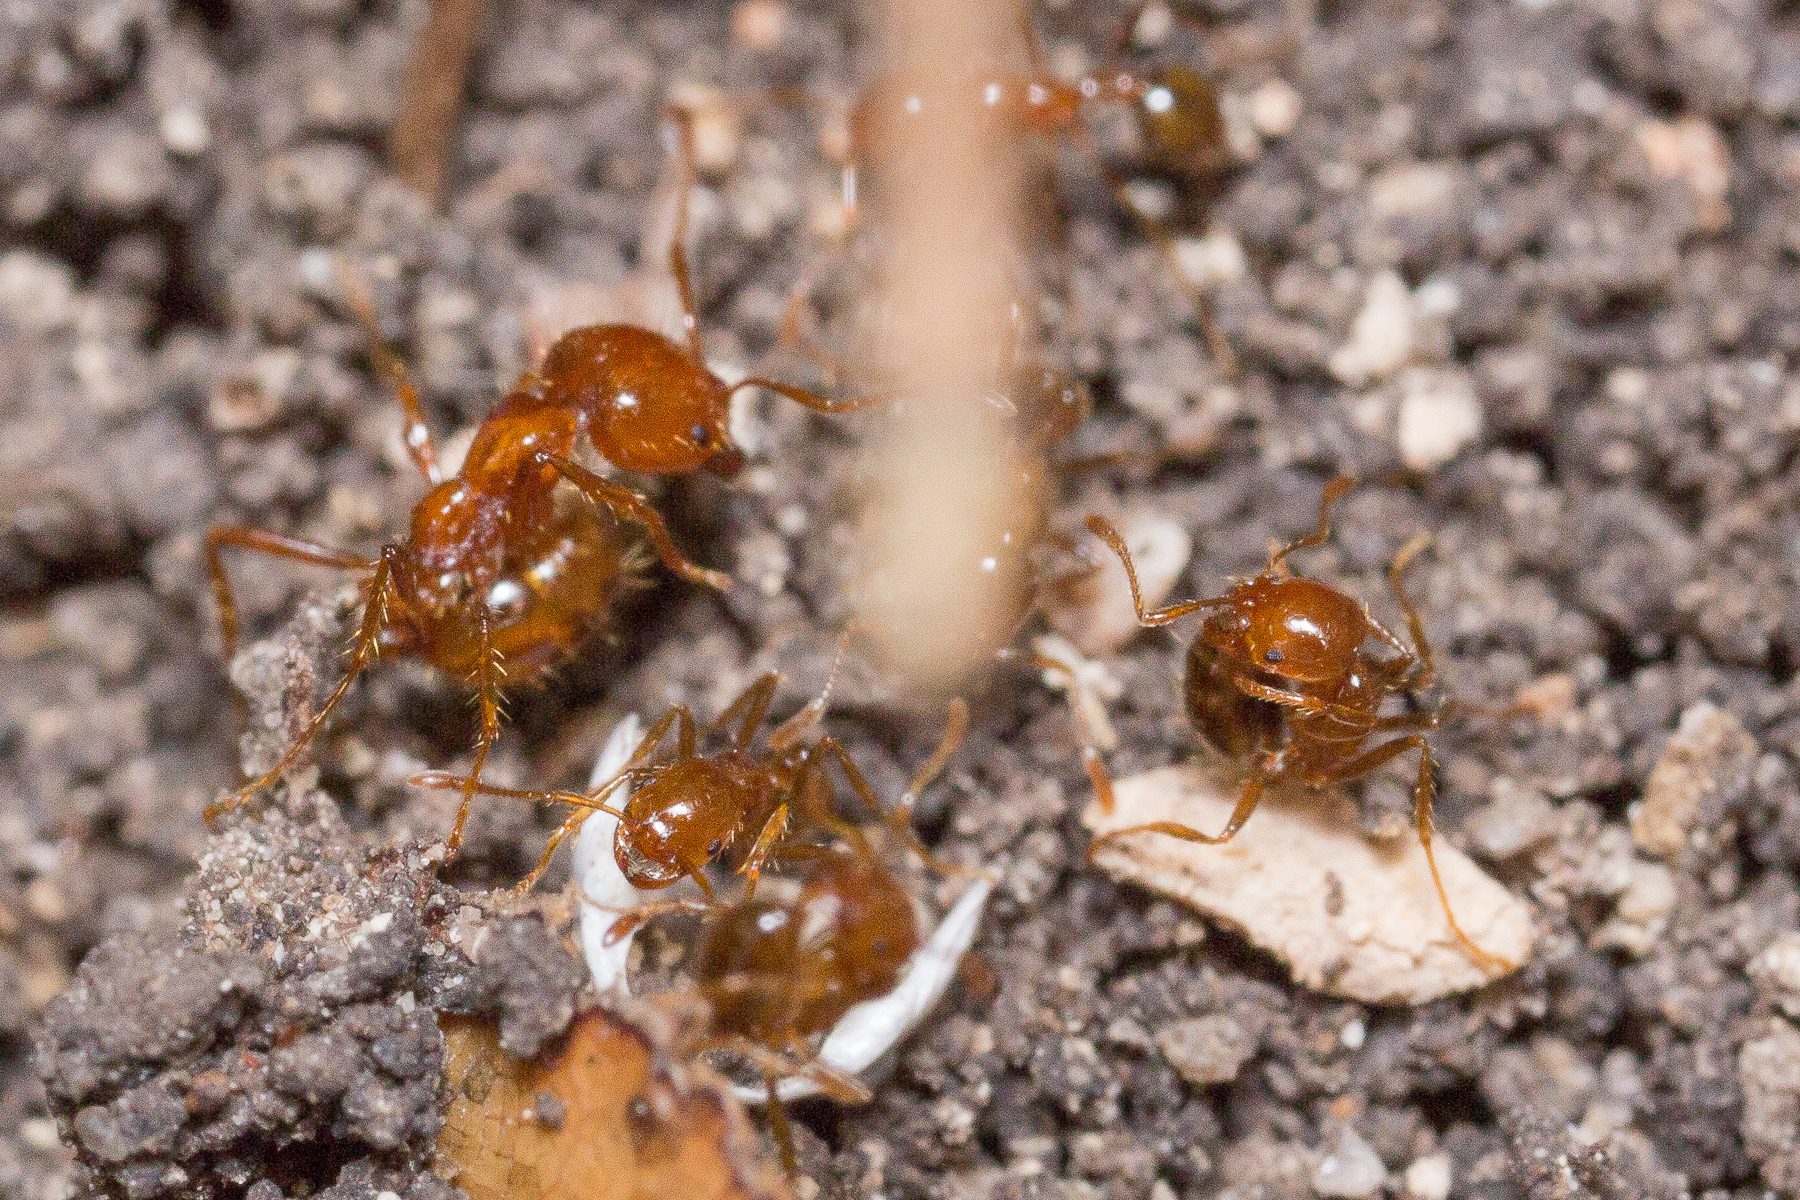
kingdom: Animalia
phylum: Arthropoda
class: Insecta
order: Hymenoptera
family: Formicidae
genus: Solenopsis
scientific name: Solenopsis geminata
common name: Tropical fire ant
